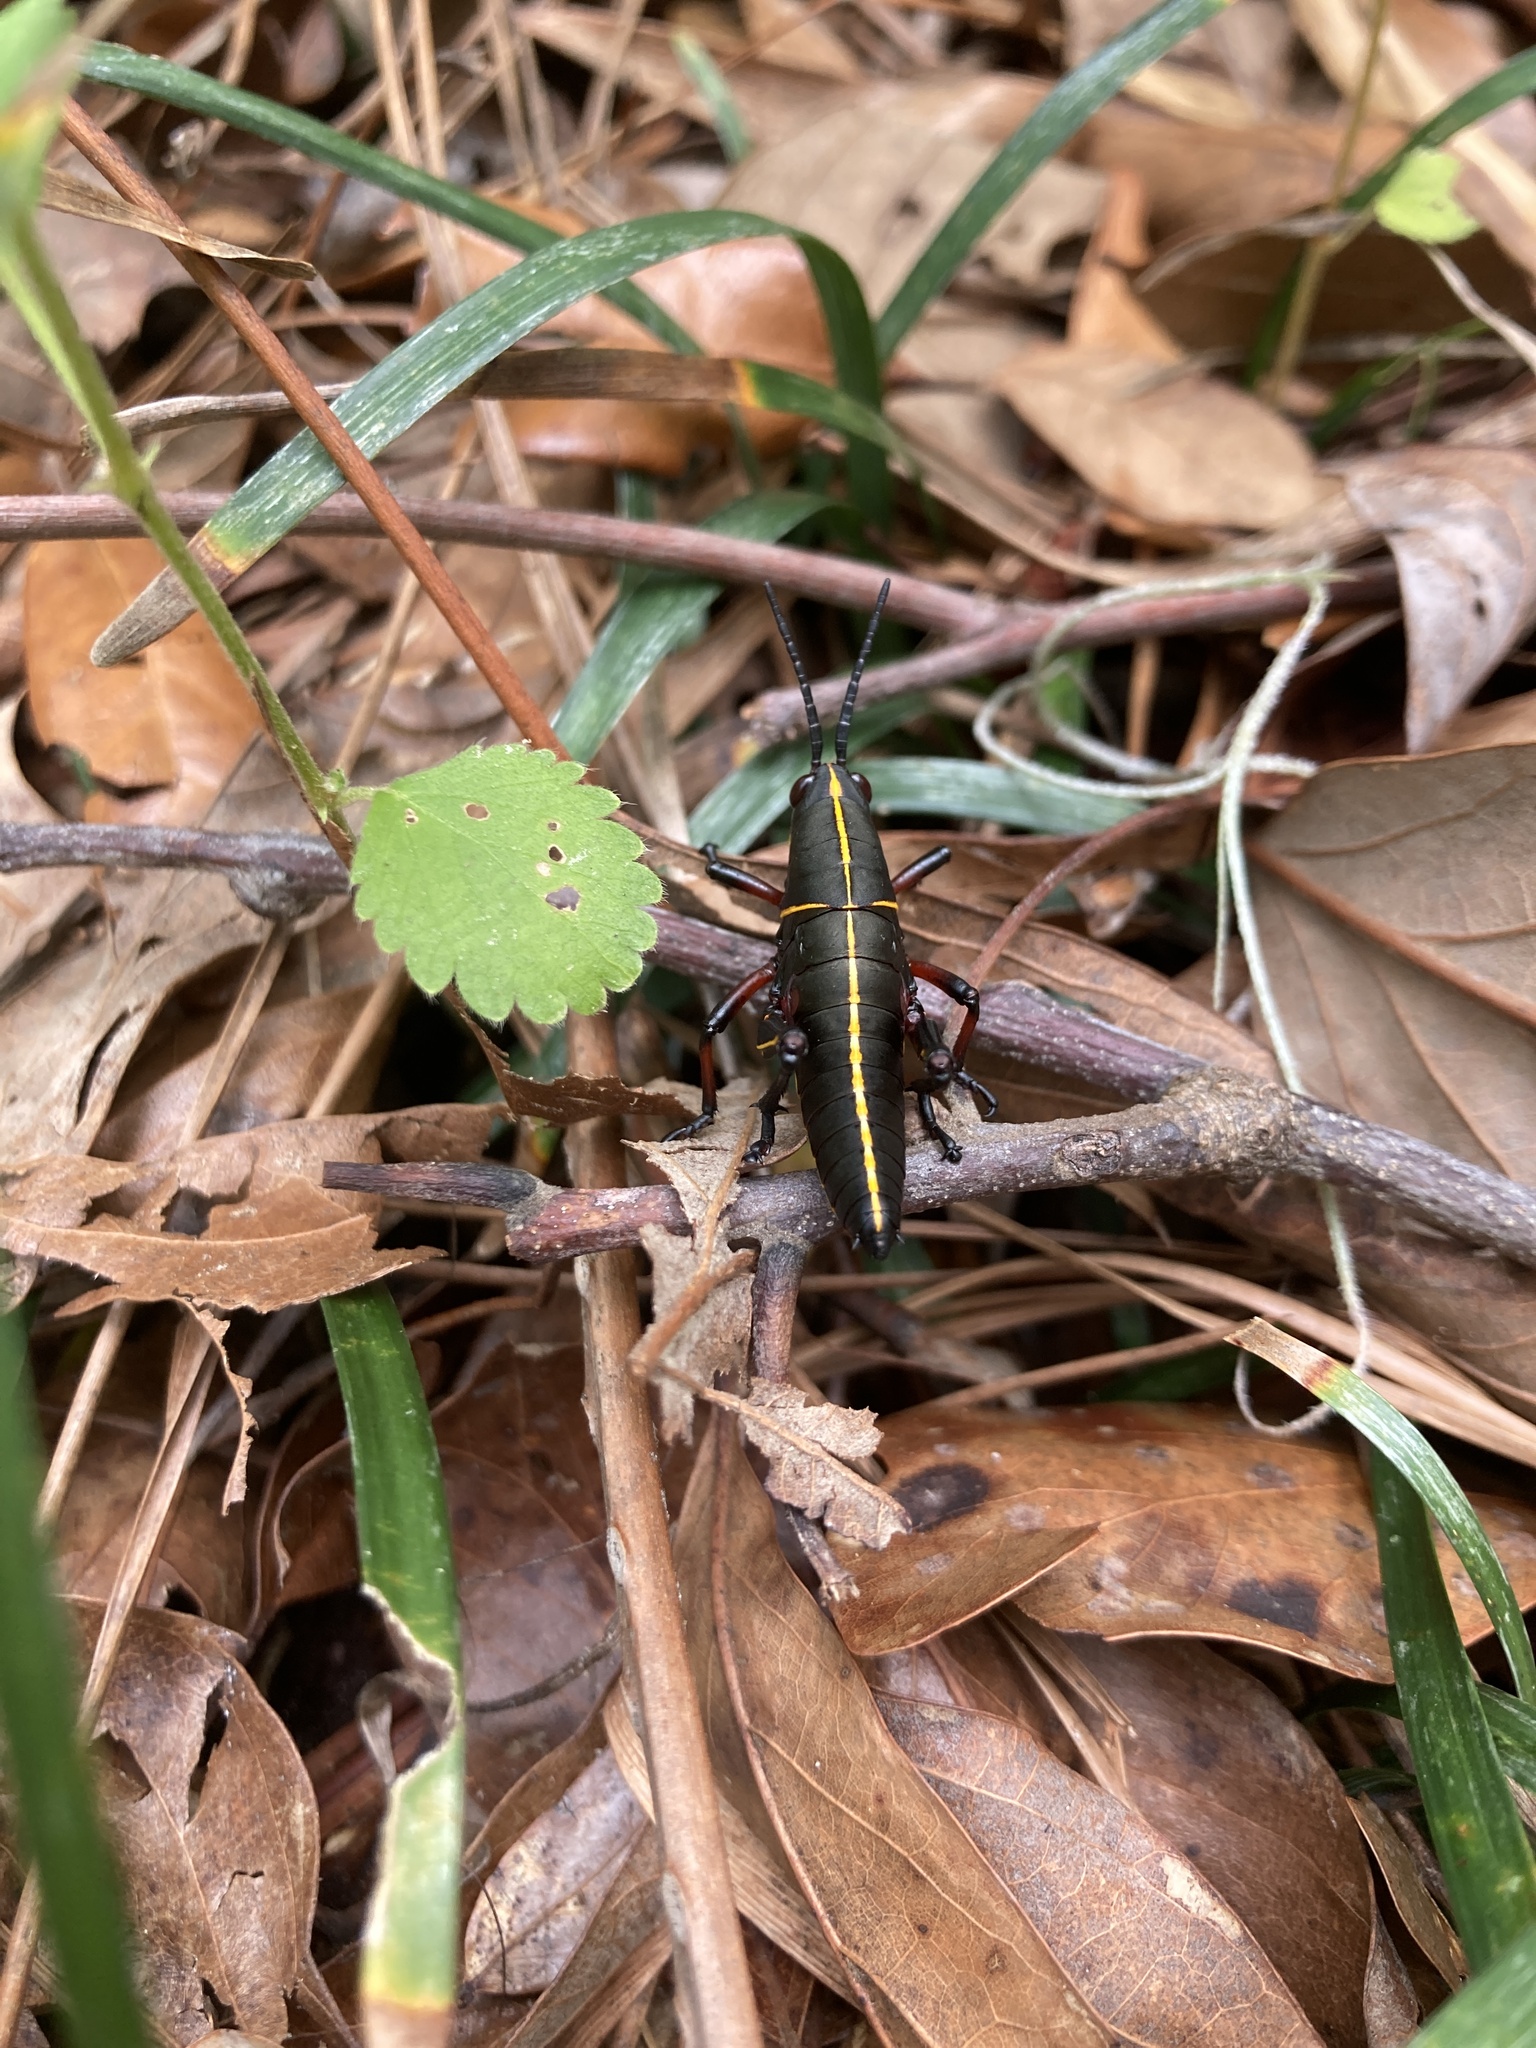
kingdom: Animalia
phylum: Arthropoda
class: Insecta
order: Orthoptera
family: Romaleidae
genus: Romalea
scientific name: Romalea microptera
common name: Eastern lubber grasshopper
